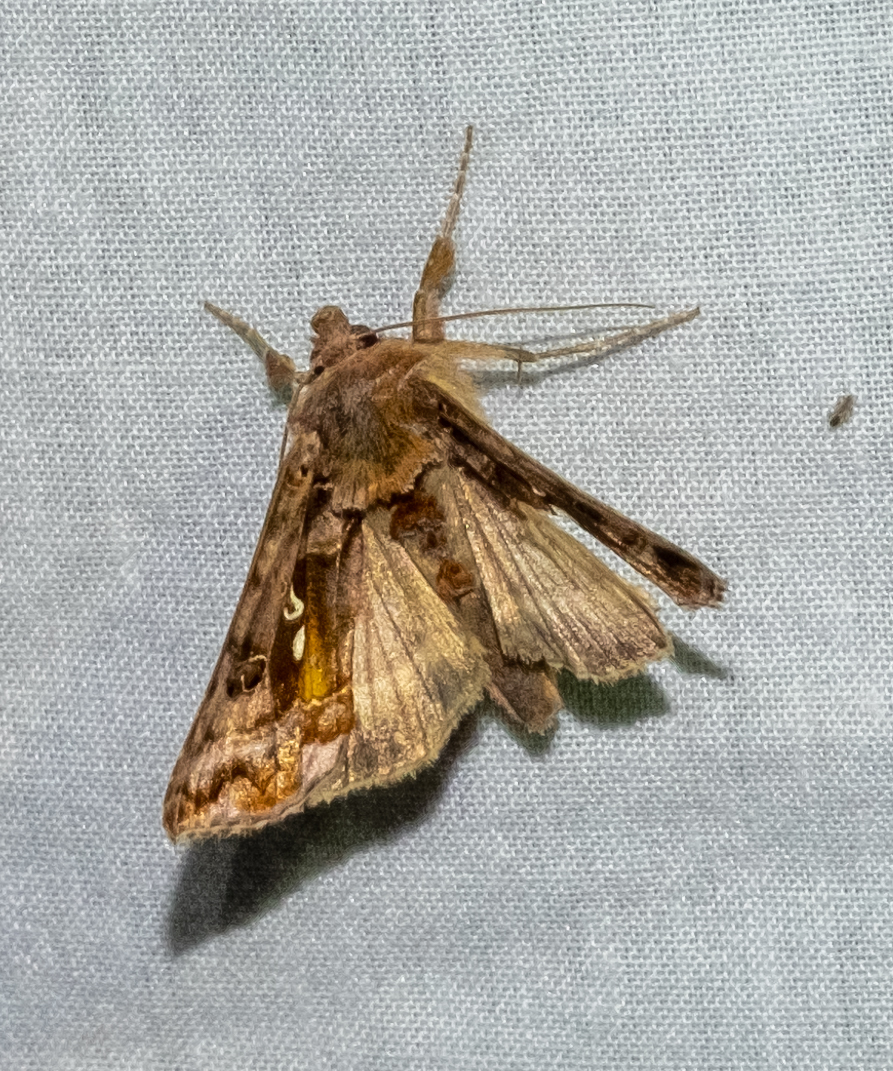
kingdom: Animalia
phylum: Arthropoda
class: Insecta
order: Lepidoptera
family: Noctuidae
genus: Autographa
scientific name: Autographa pulchrina
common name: Beautiful golden y
